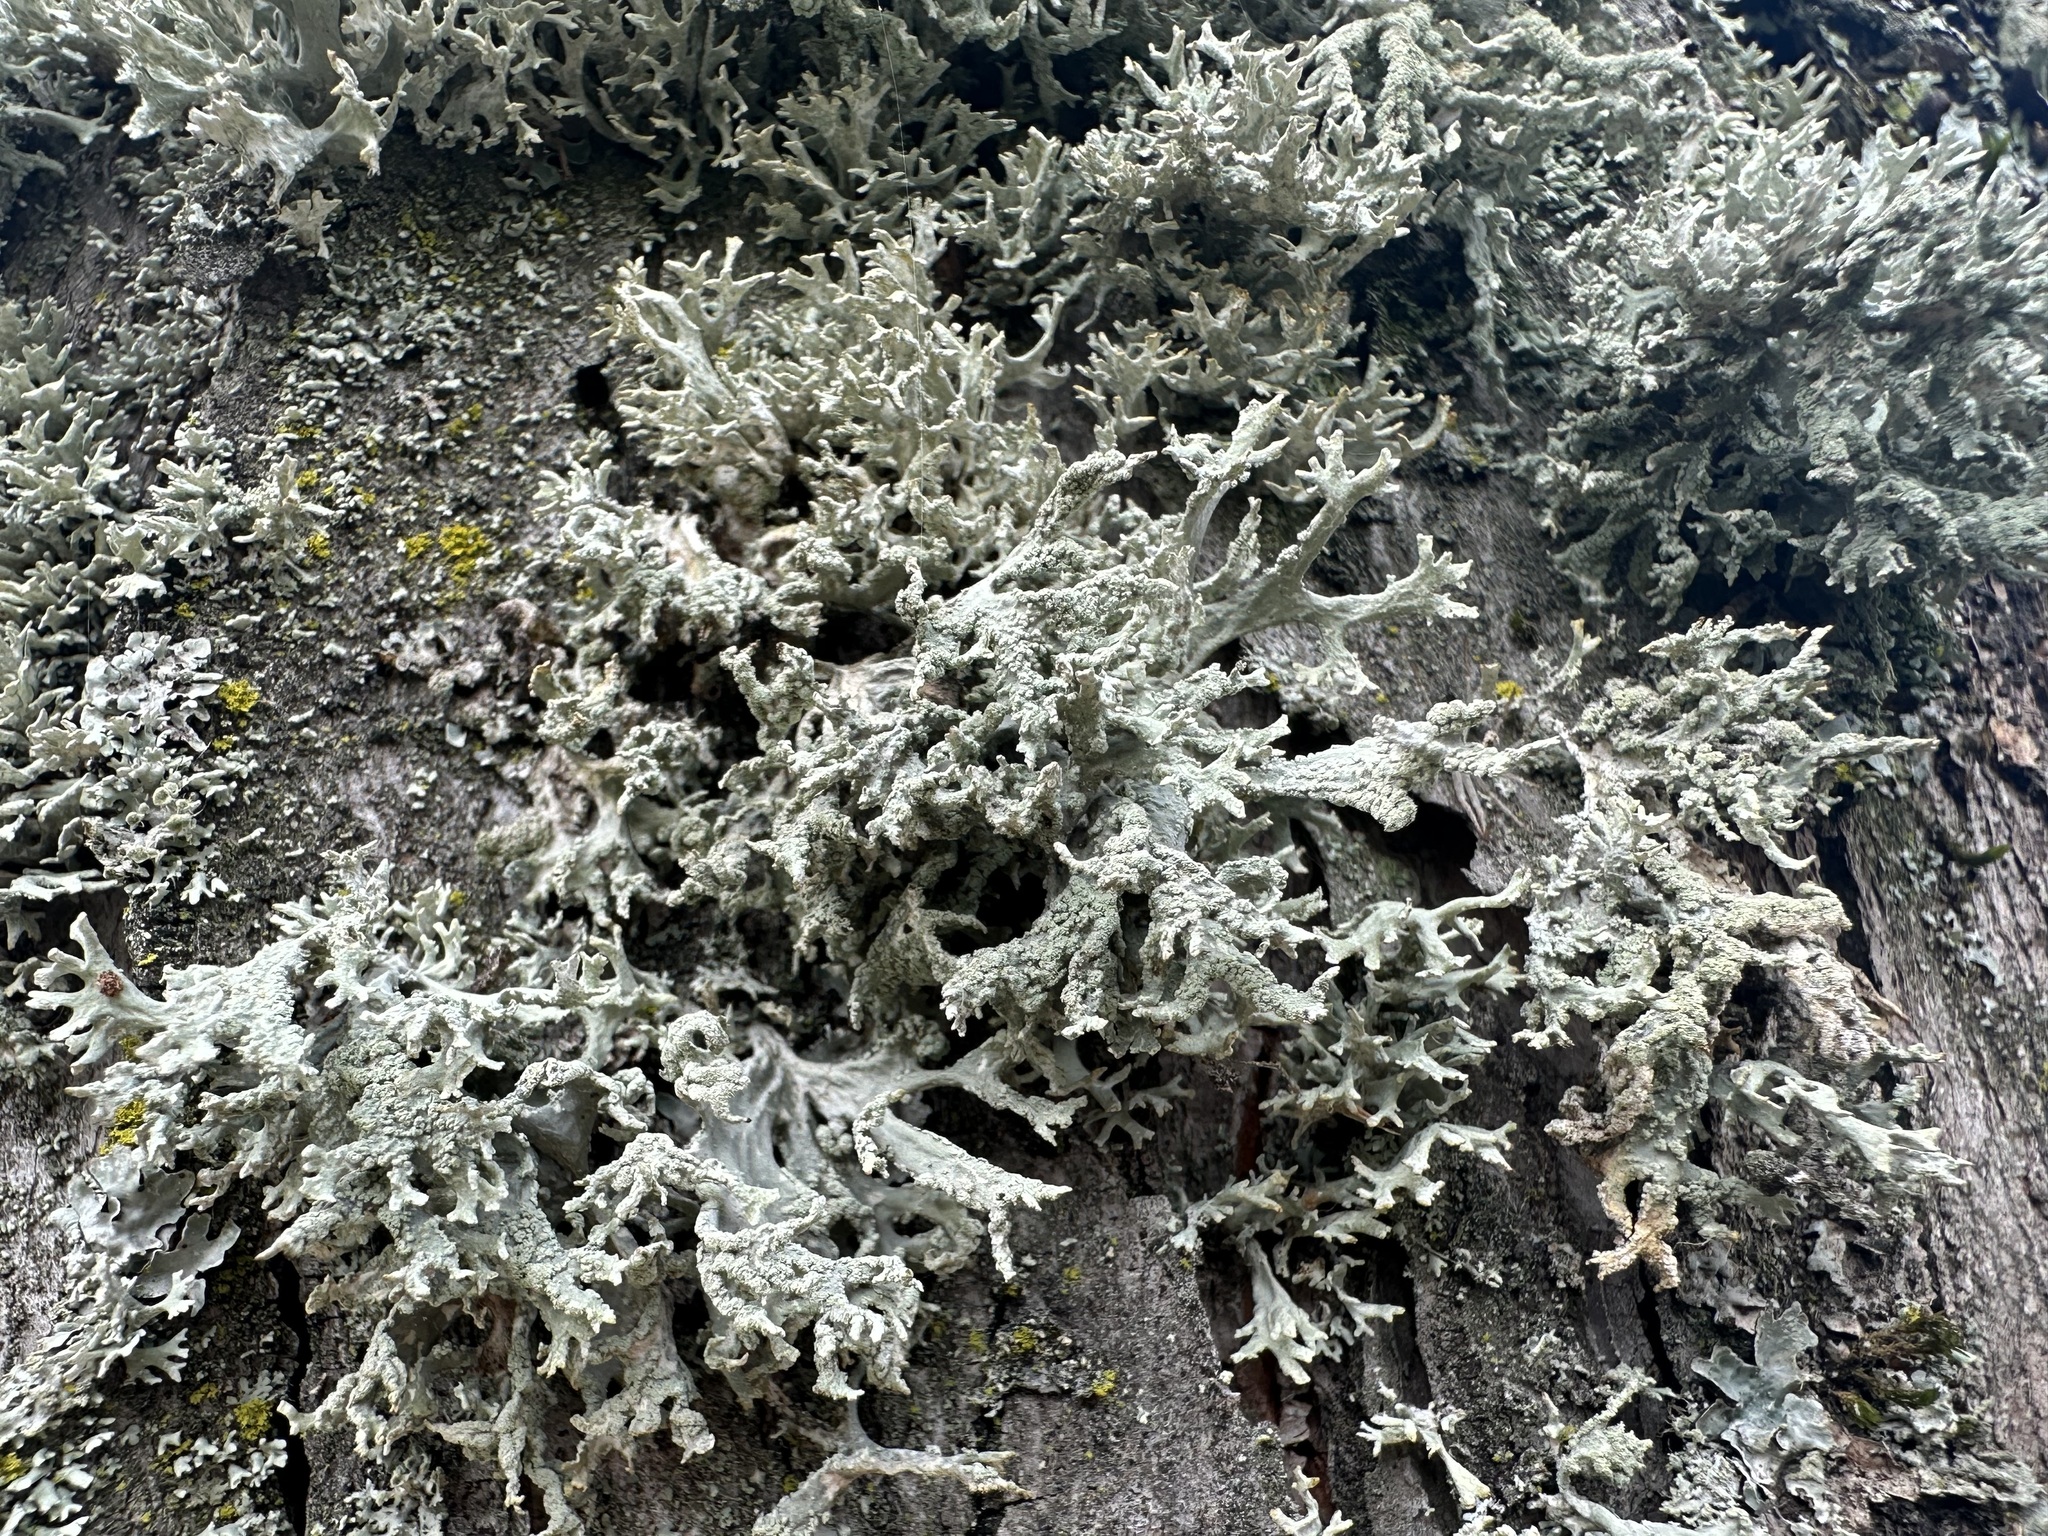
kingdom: Fungi
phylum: Ascomycota
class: Lecanoromycetes
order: Lecanorales
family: Parmeliaceae
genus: Evernia
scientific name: Evernia prunastri
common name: Oak moss
